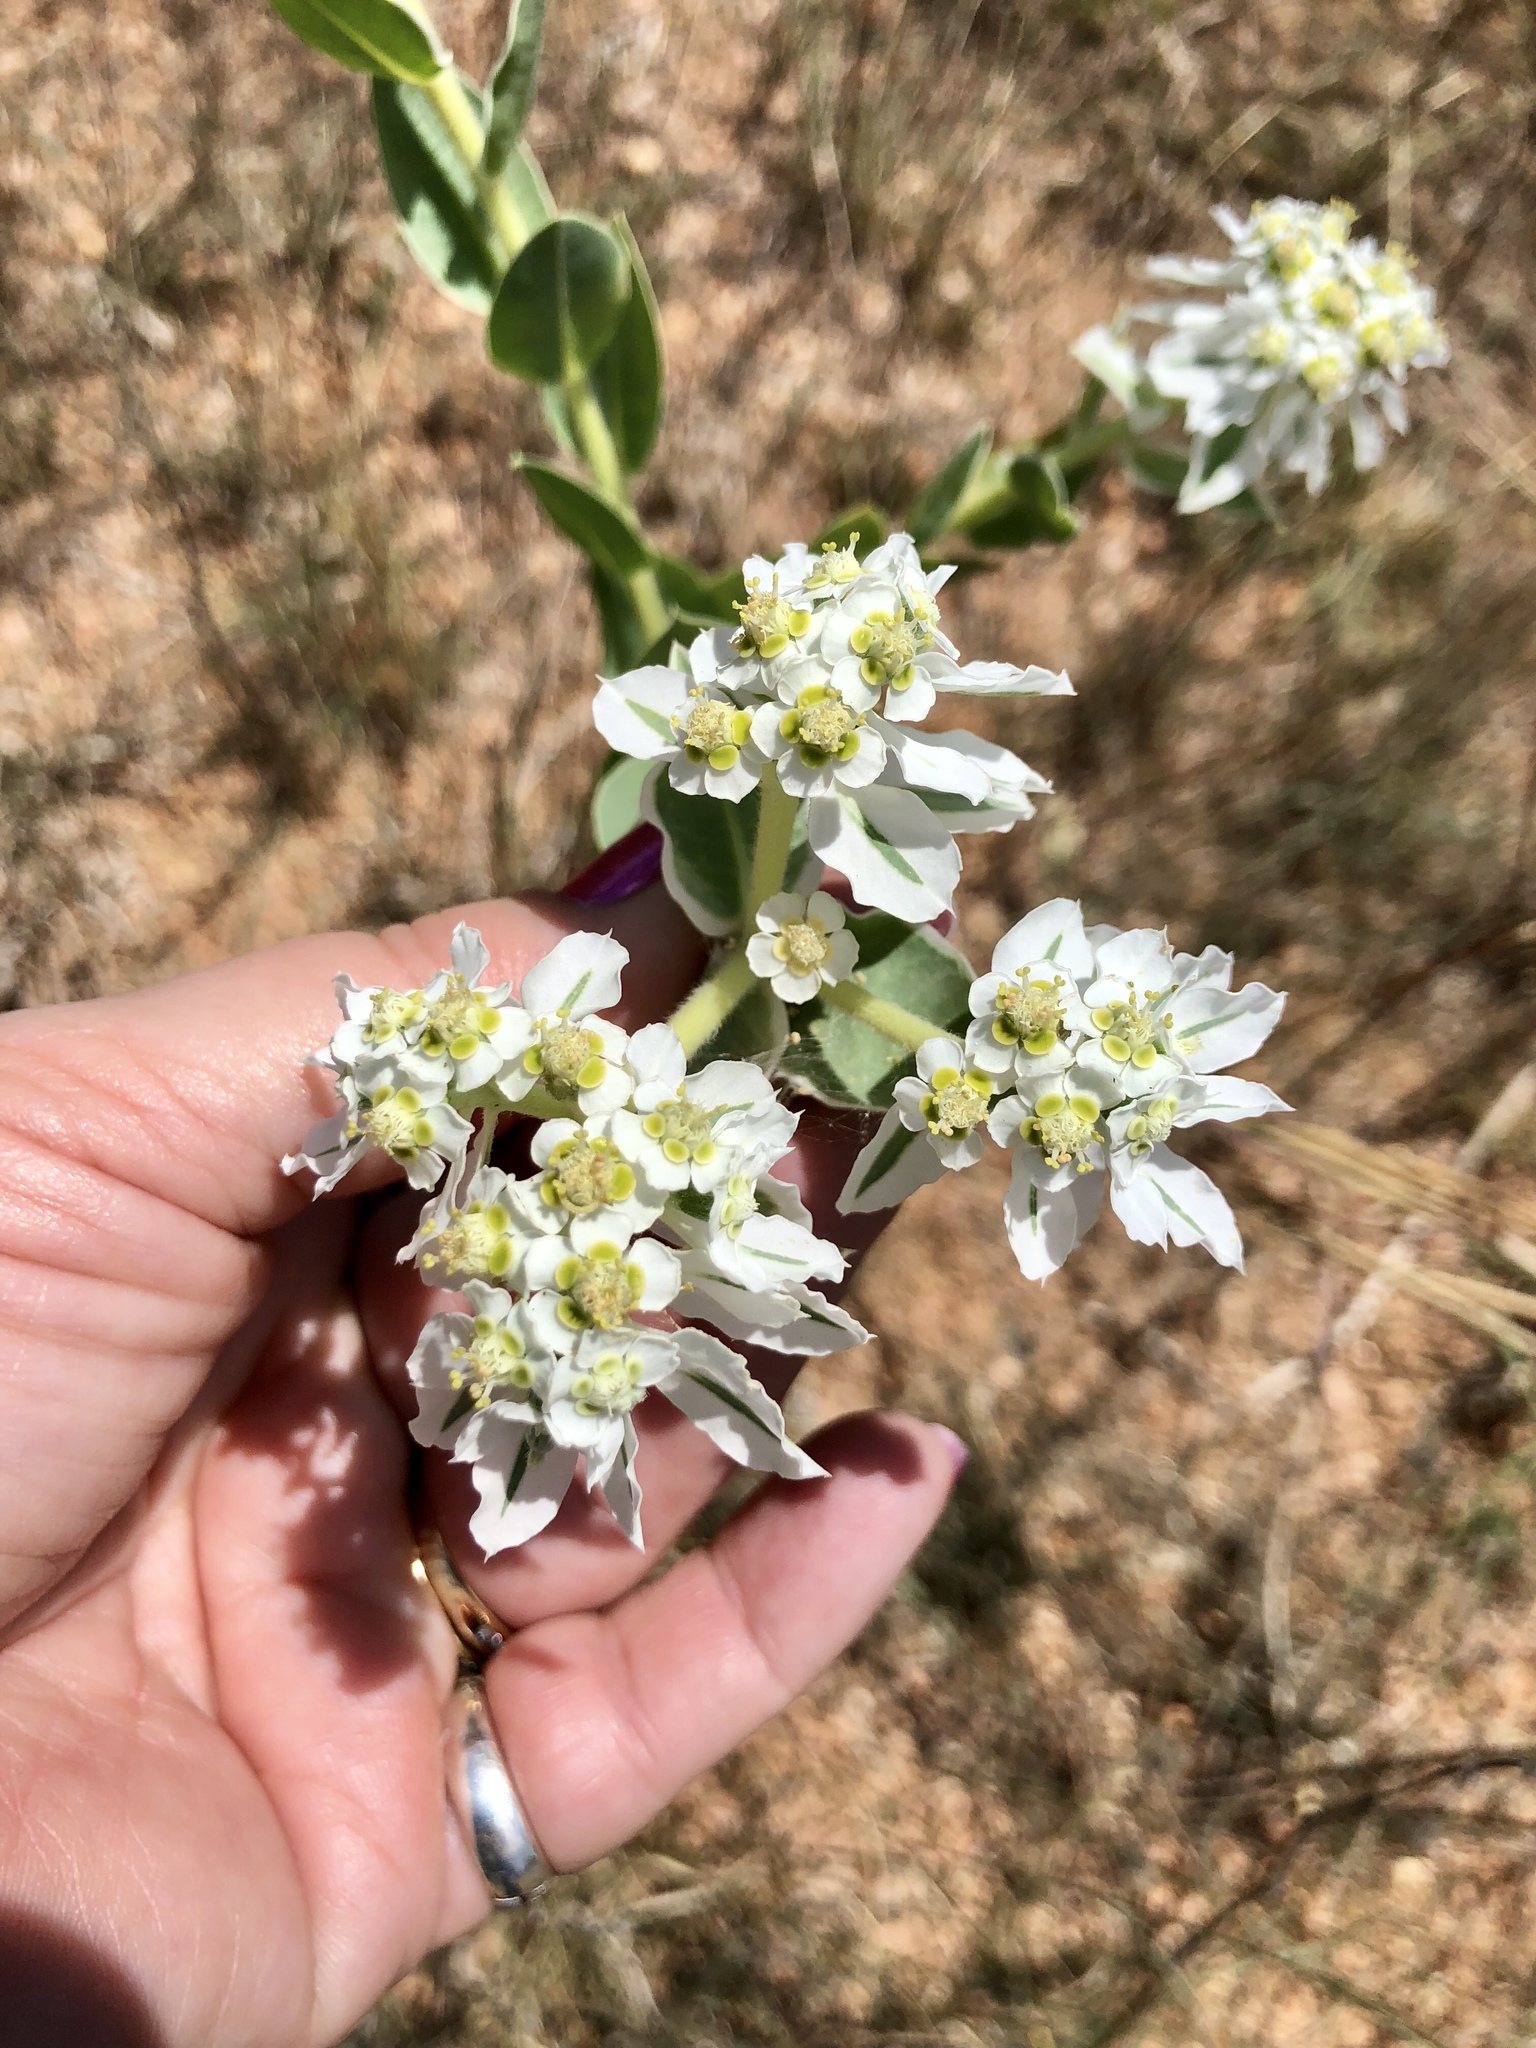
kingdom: Plantae
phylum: Tracheophyta
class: Magnoliopsida
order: Malpighiales
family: Euphorbiaceae
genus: Euphorbia
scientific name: Euphorbia marginata
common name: Ghostweed
